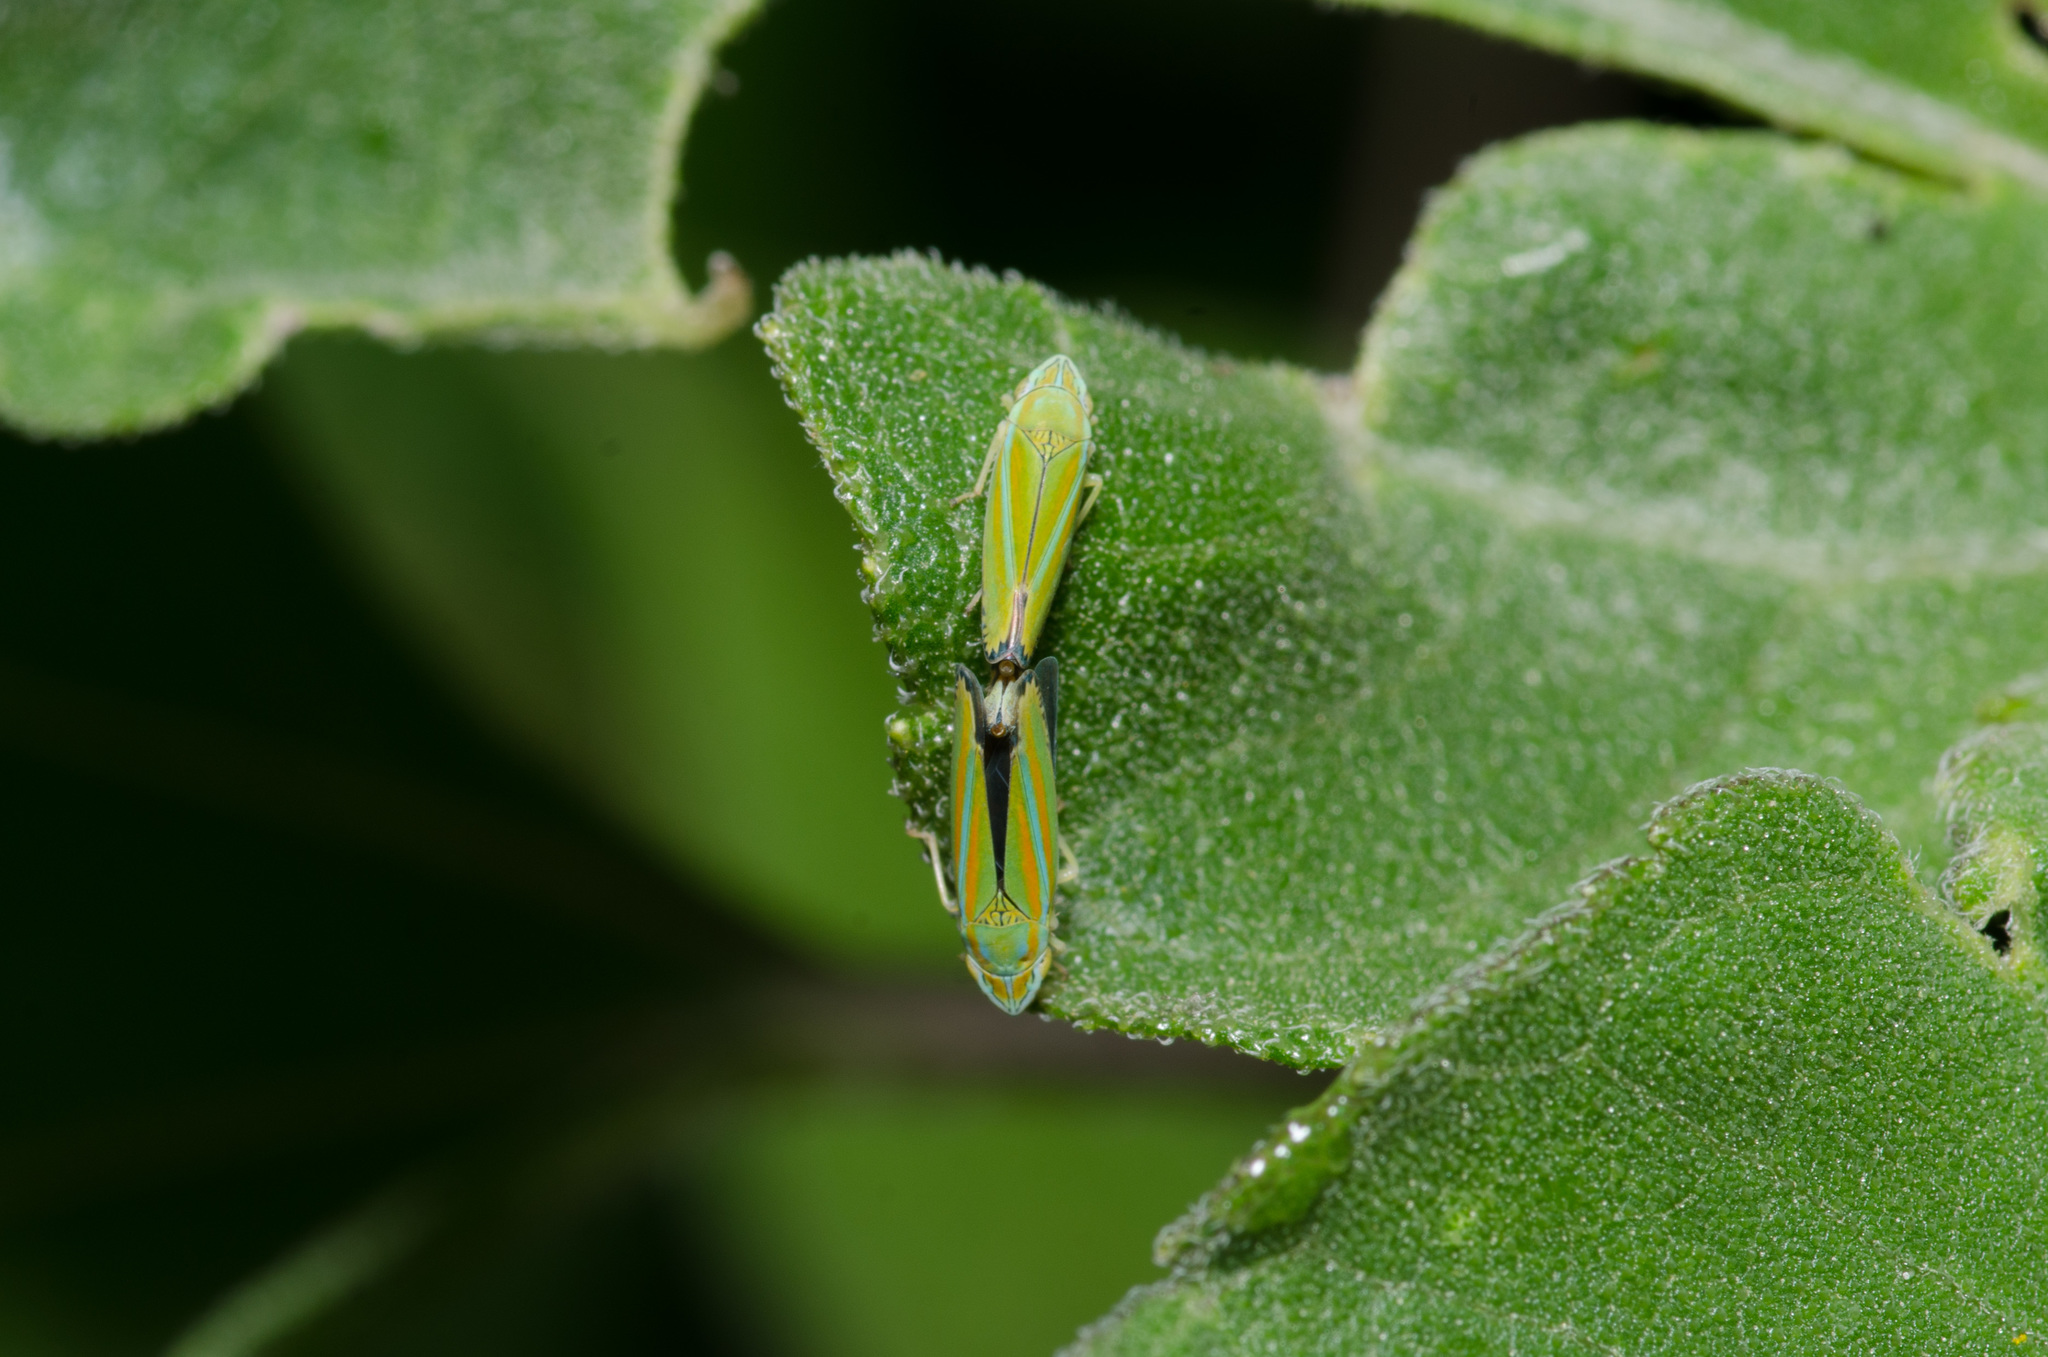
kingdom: Animalia
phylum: Arthropoda
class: Insecta
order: Hemiptera
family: Cicadellidae
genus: Graphocephala
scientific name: Graphocephala versuta
